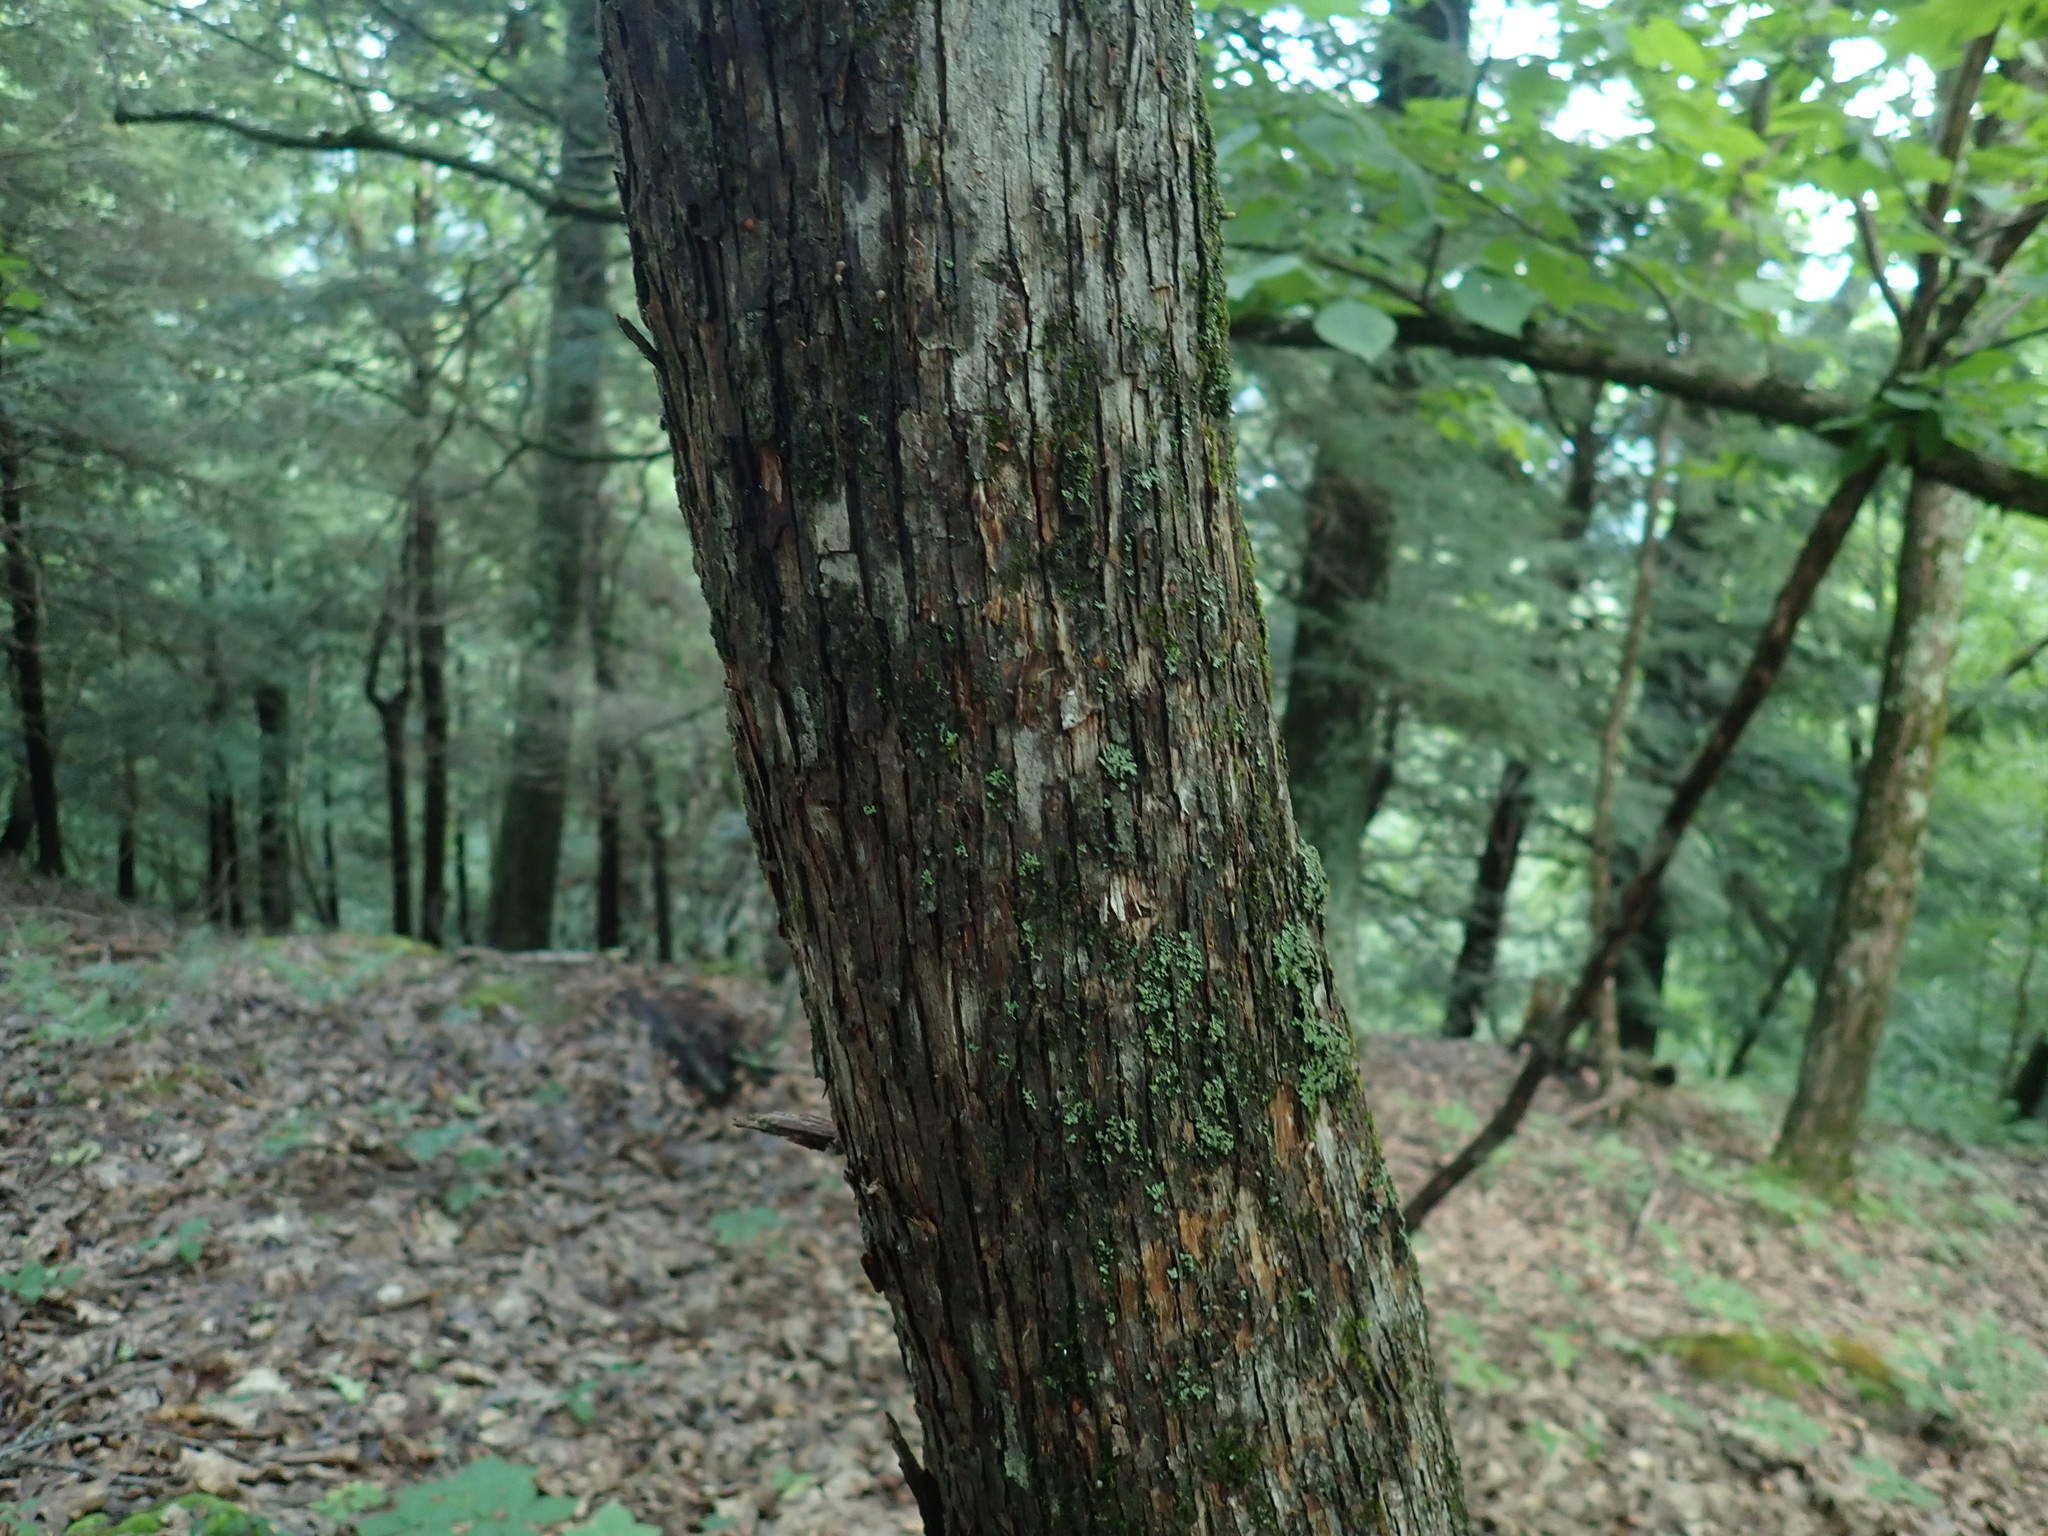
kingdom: Plantae
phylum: Tracheophyta
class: Magnoliopsida
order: Fagales
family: Betulaceae
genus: Ostrya
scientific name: Ostrya virginiana
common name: Ironwood
